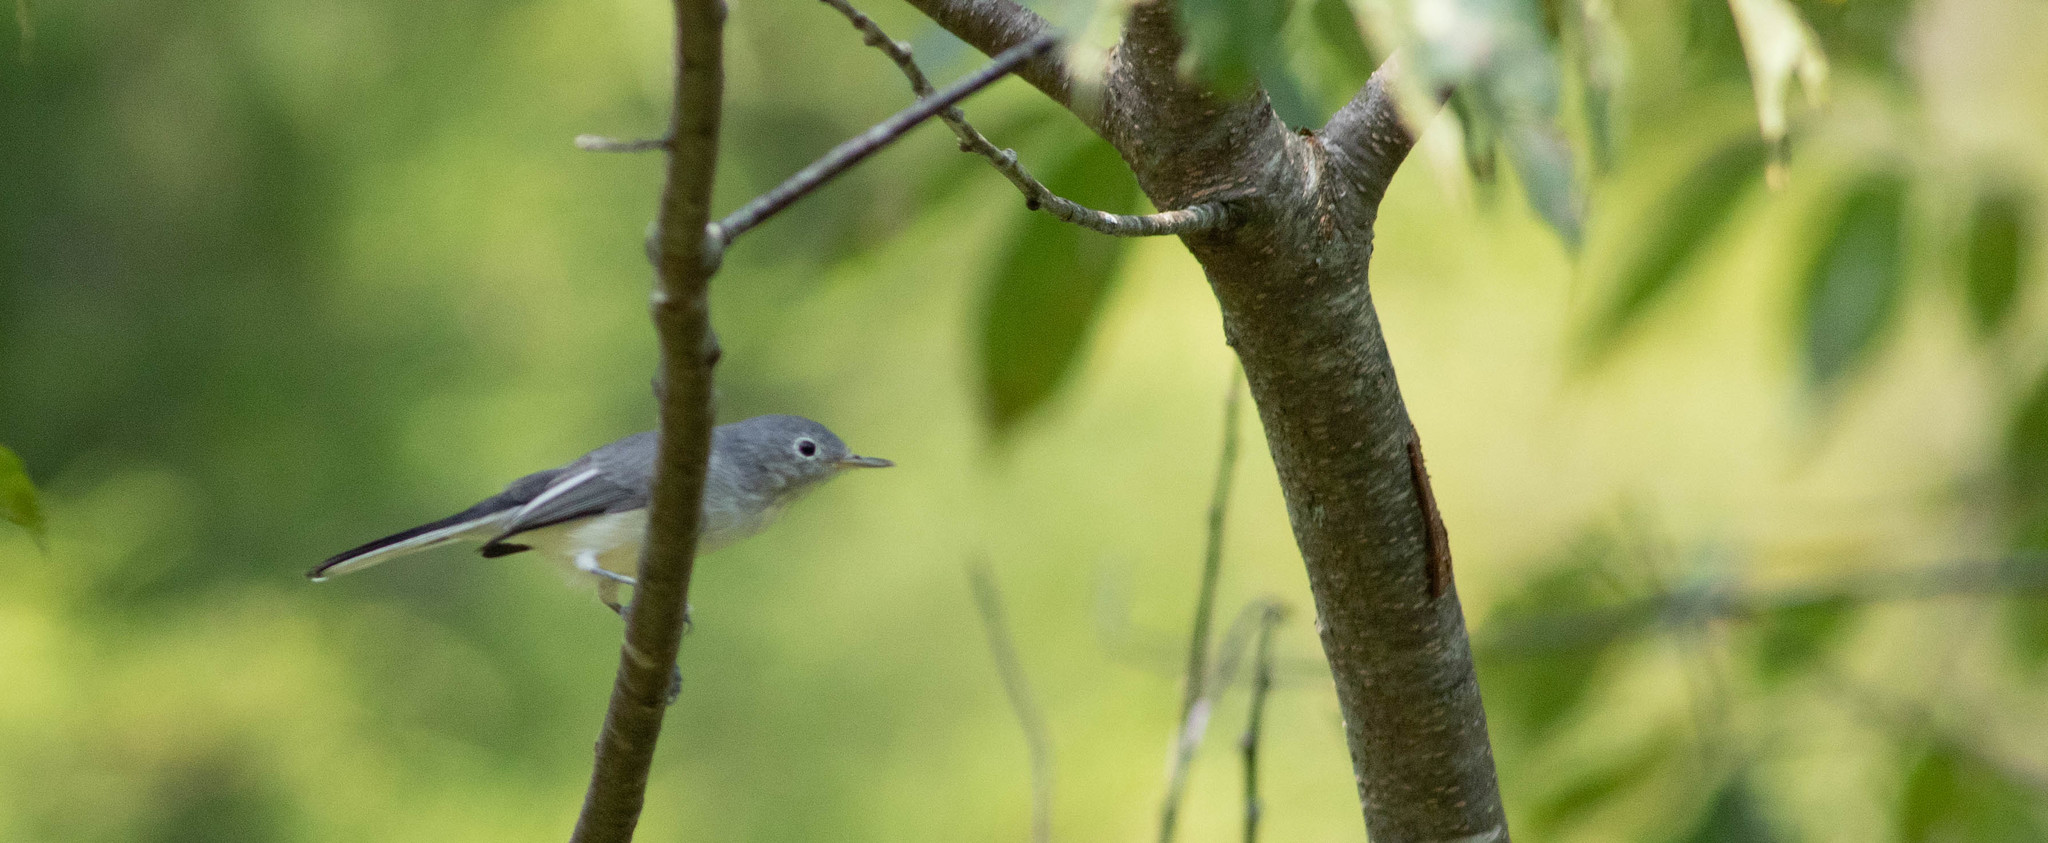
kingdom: Animalia
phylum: Chordata
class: Aves
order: Passeriformes
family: Polioptilidae
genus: Polioptila
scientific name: Polioptila caerulea
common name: Blue-gray gnatcatcher
